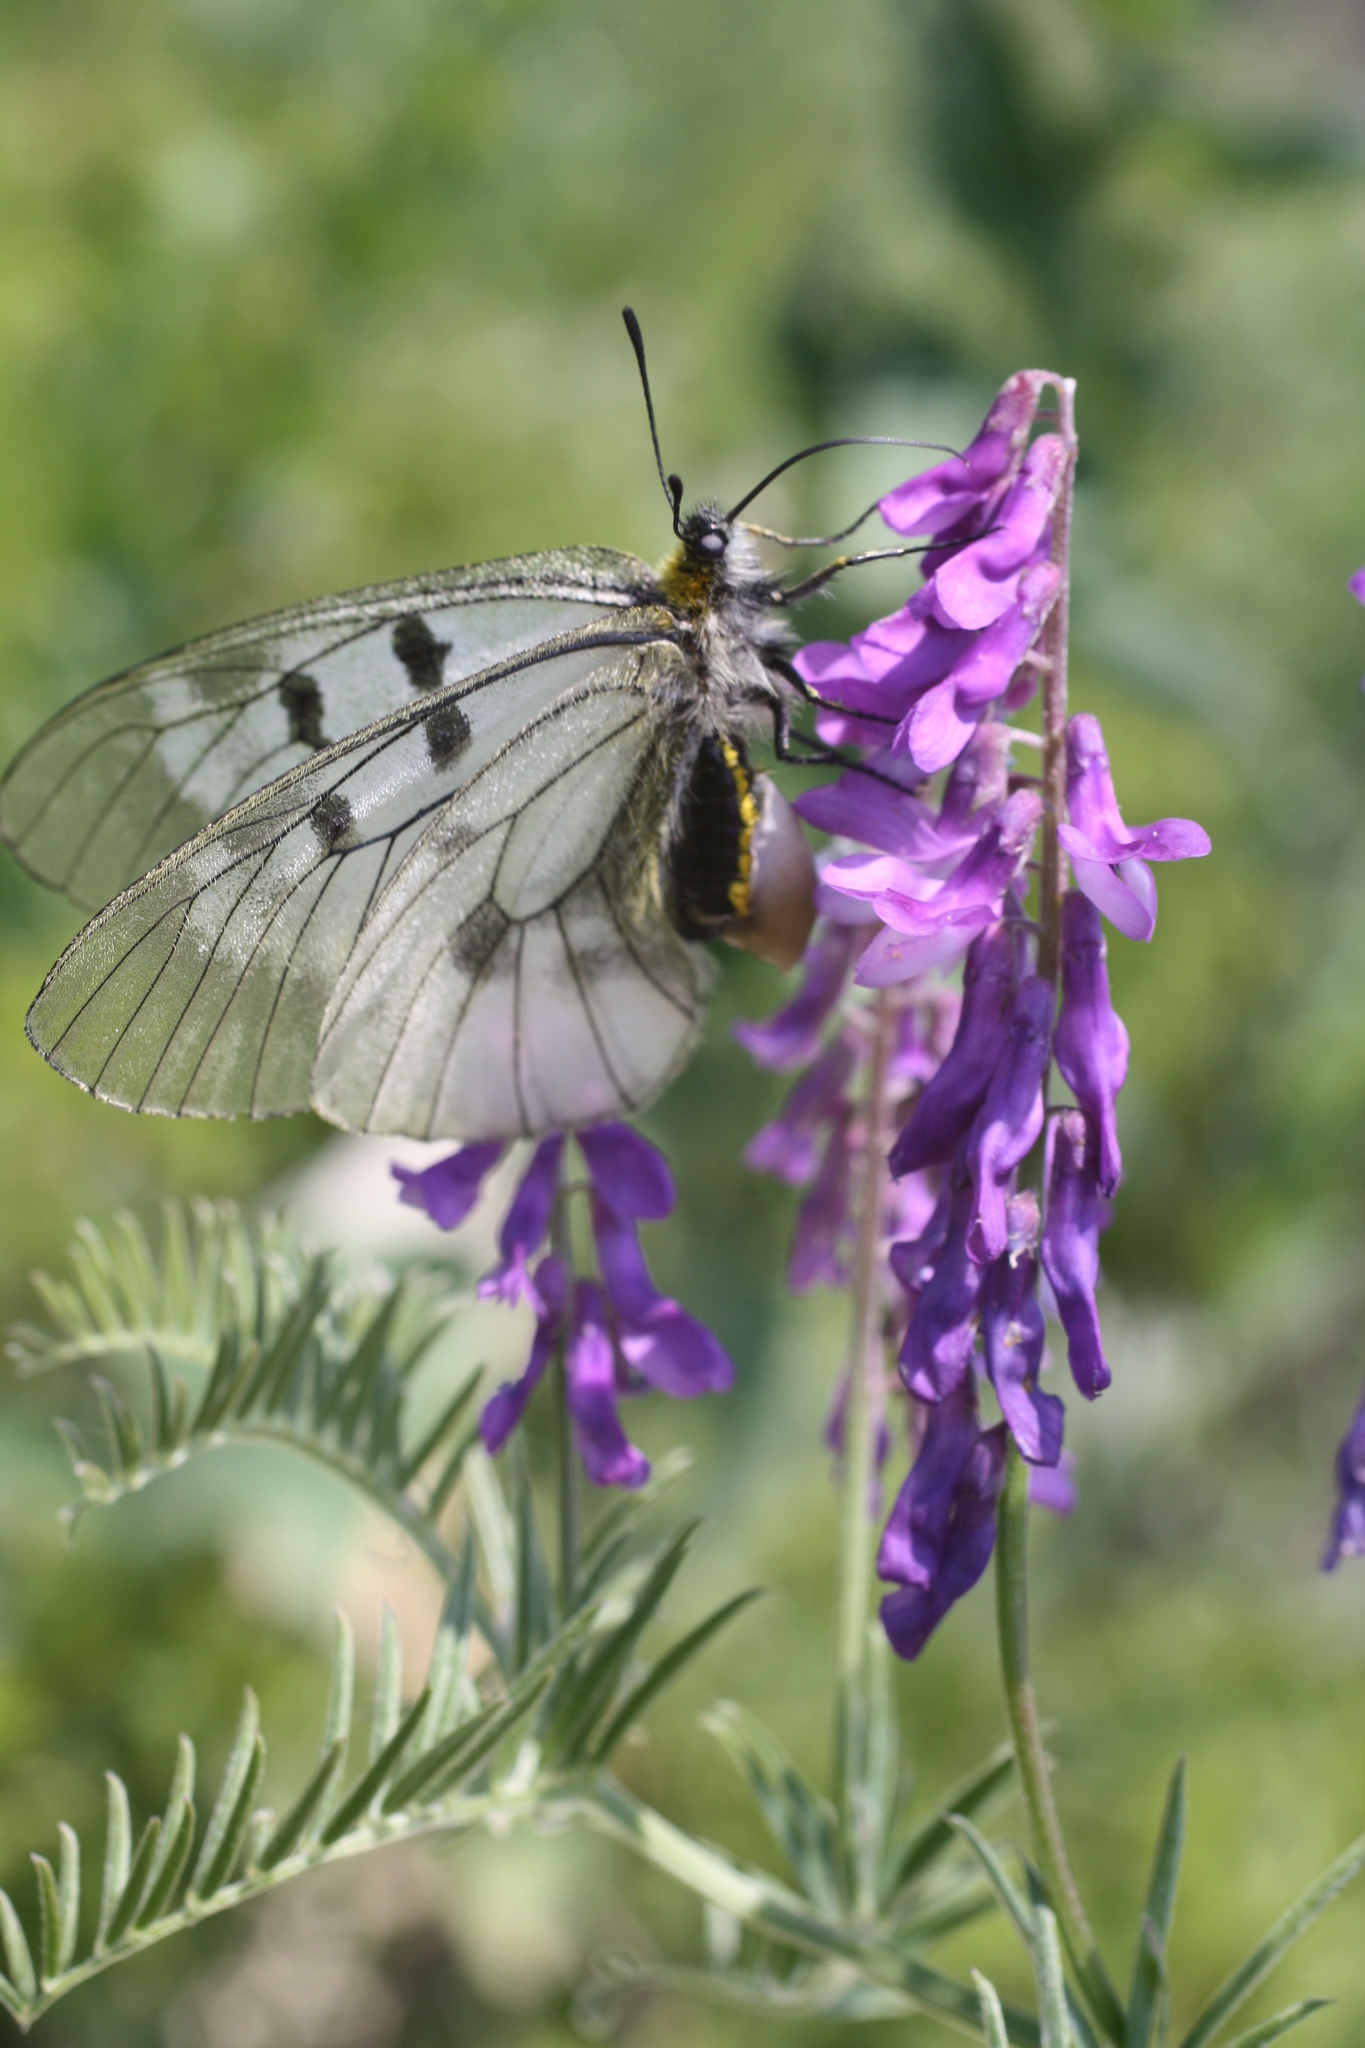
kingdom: Animalia
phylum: Arthropoda
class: Insecta
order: Lepidoptera
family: Papilionidae
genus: Parnassius
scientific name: Parnassius mnemosyne
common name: Clouded apollo
